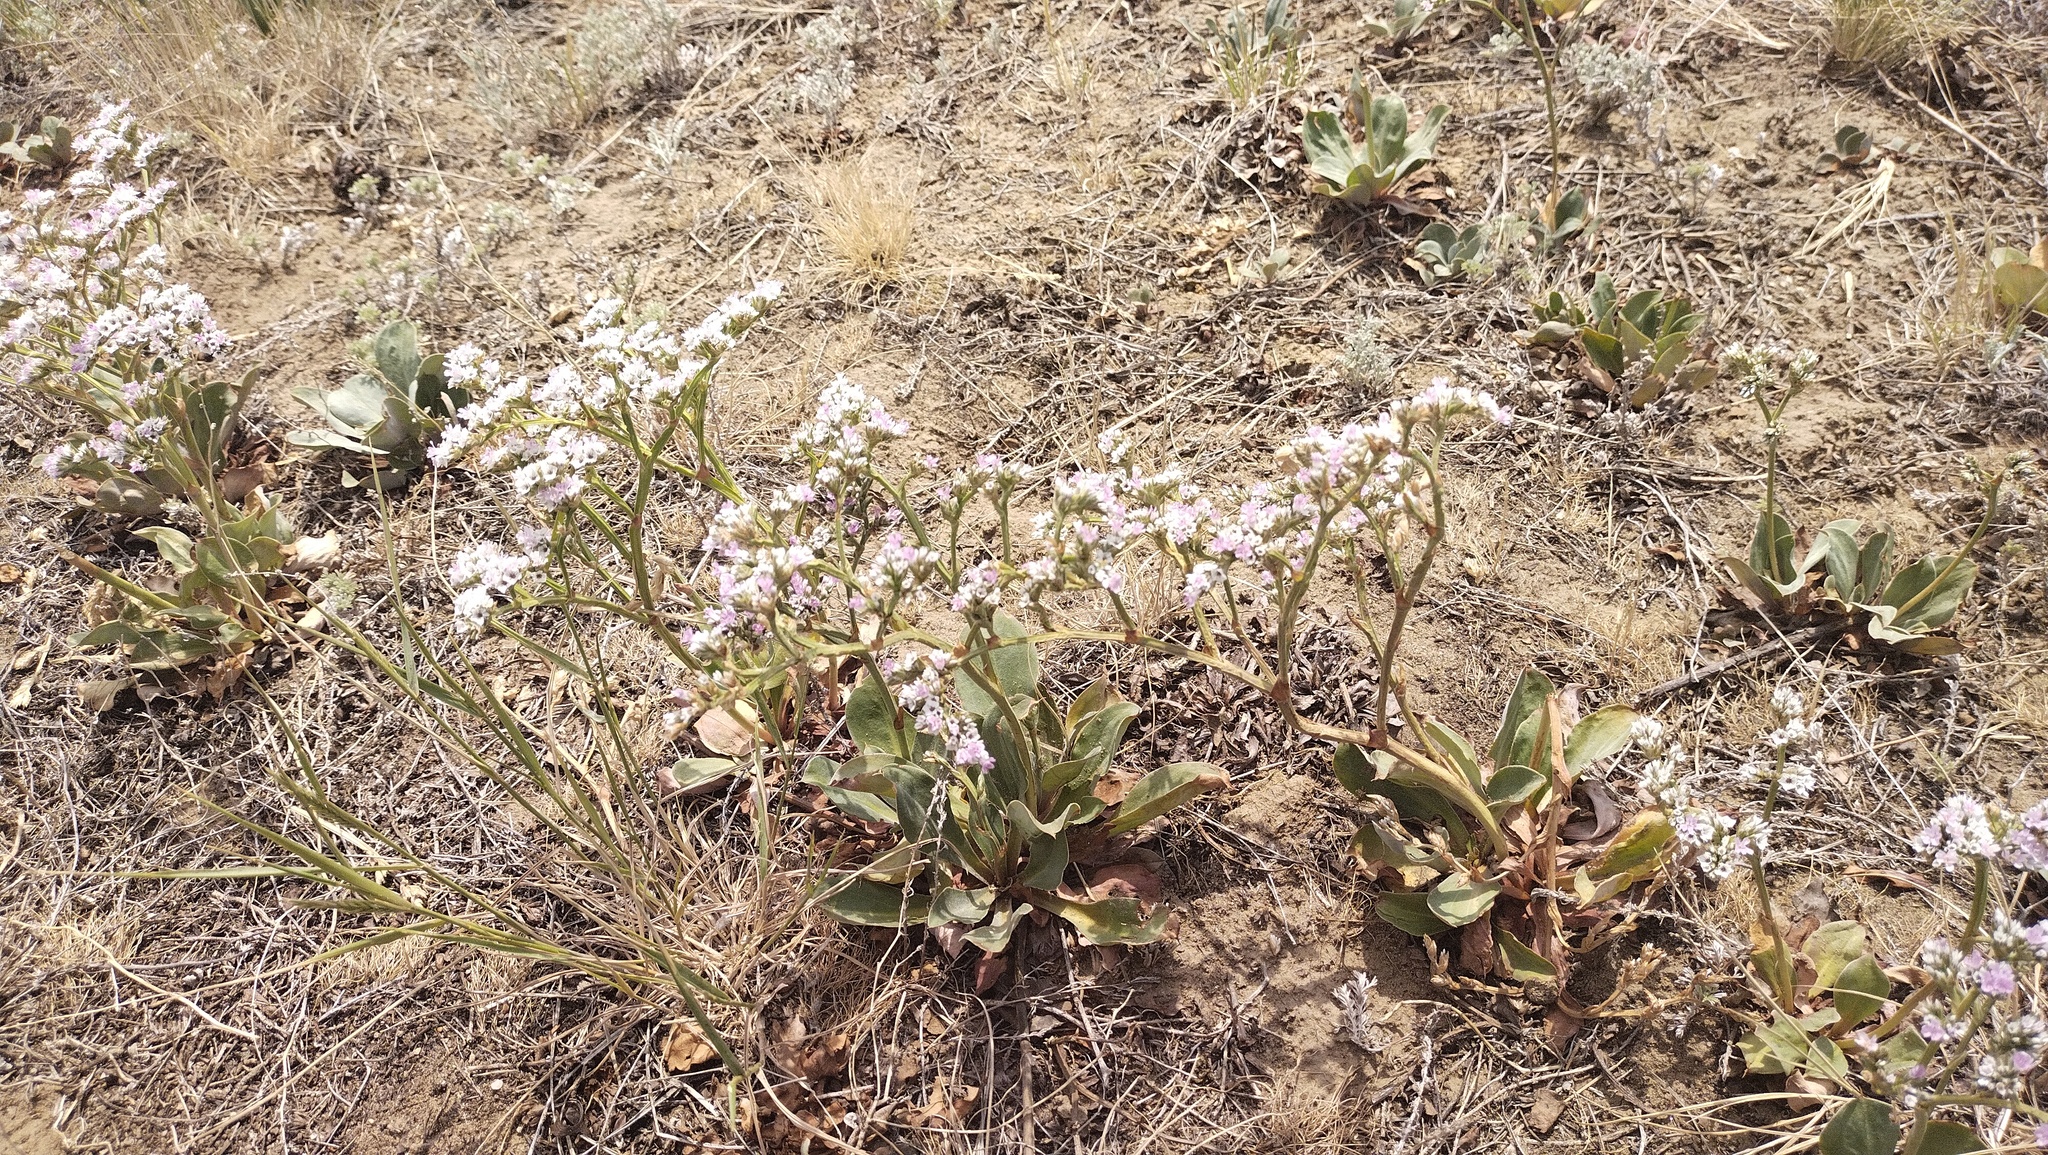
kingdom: Plantae
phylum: Tracheophyta
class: Magnoliopsida
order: Caryophyllales
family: Plumbaginaceae
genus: Goniolimon
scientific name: Goniolimon speciosum
